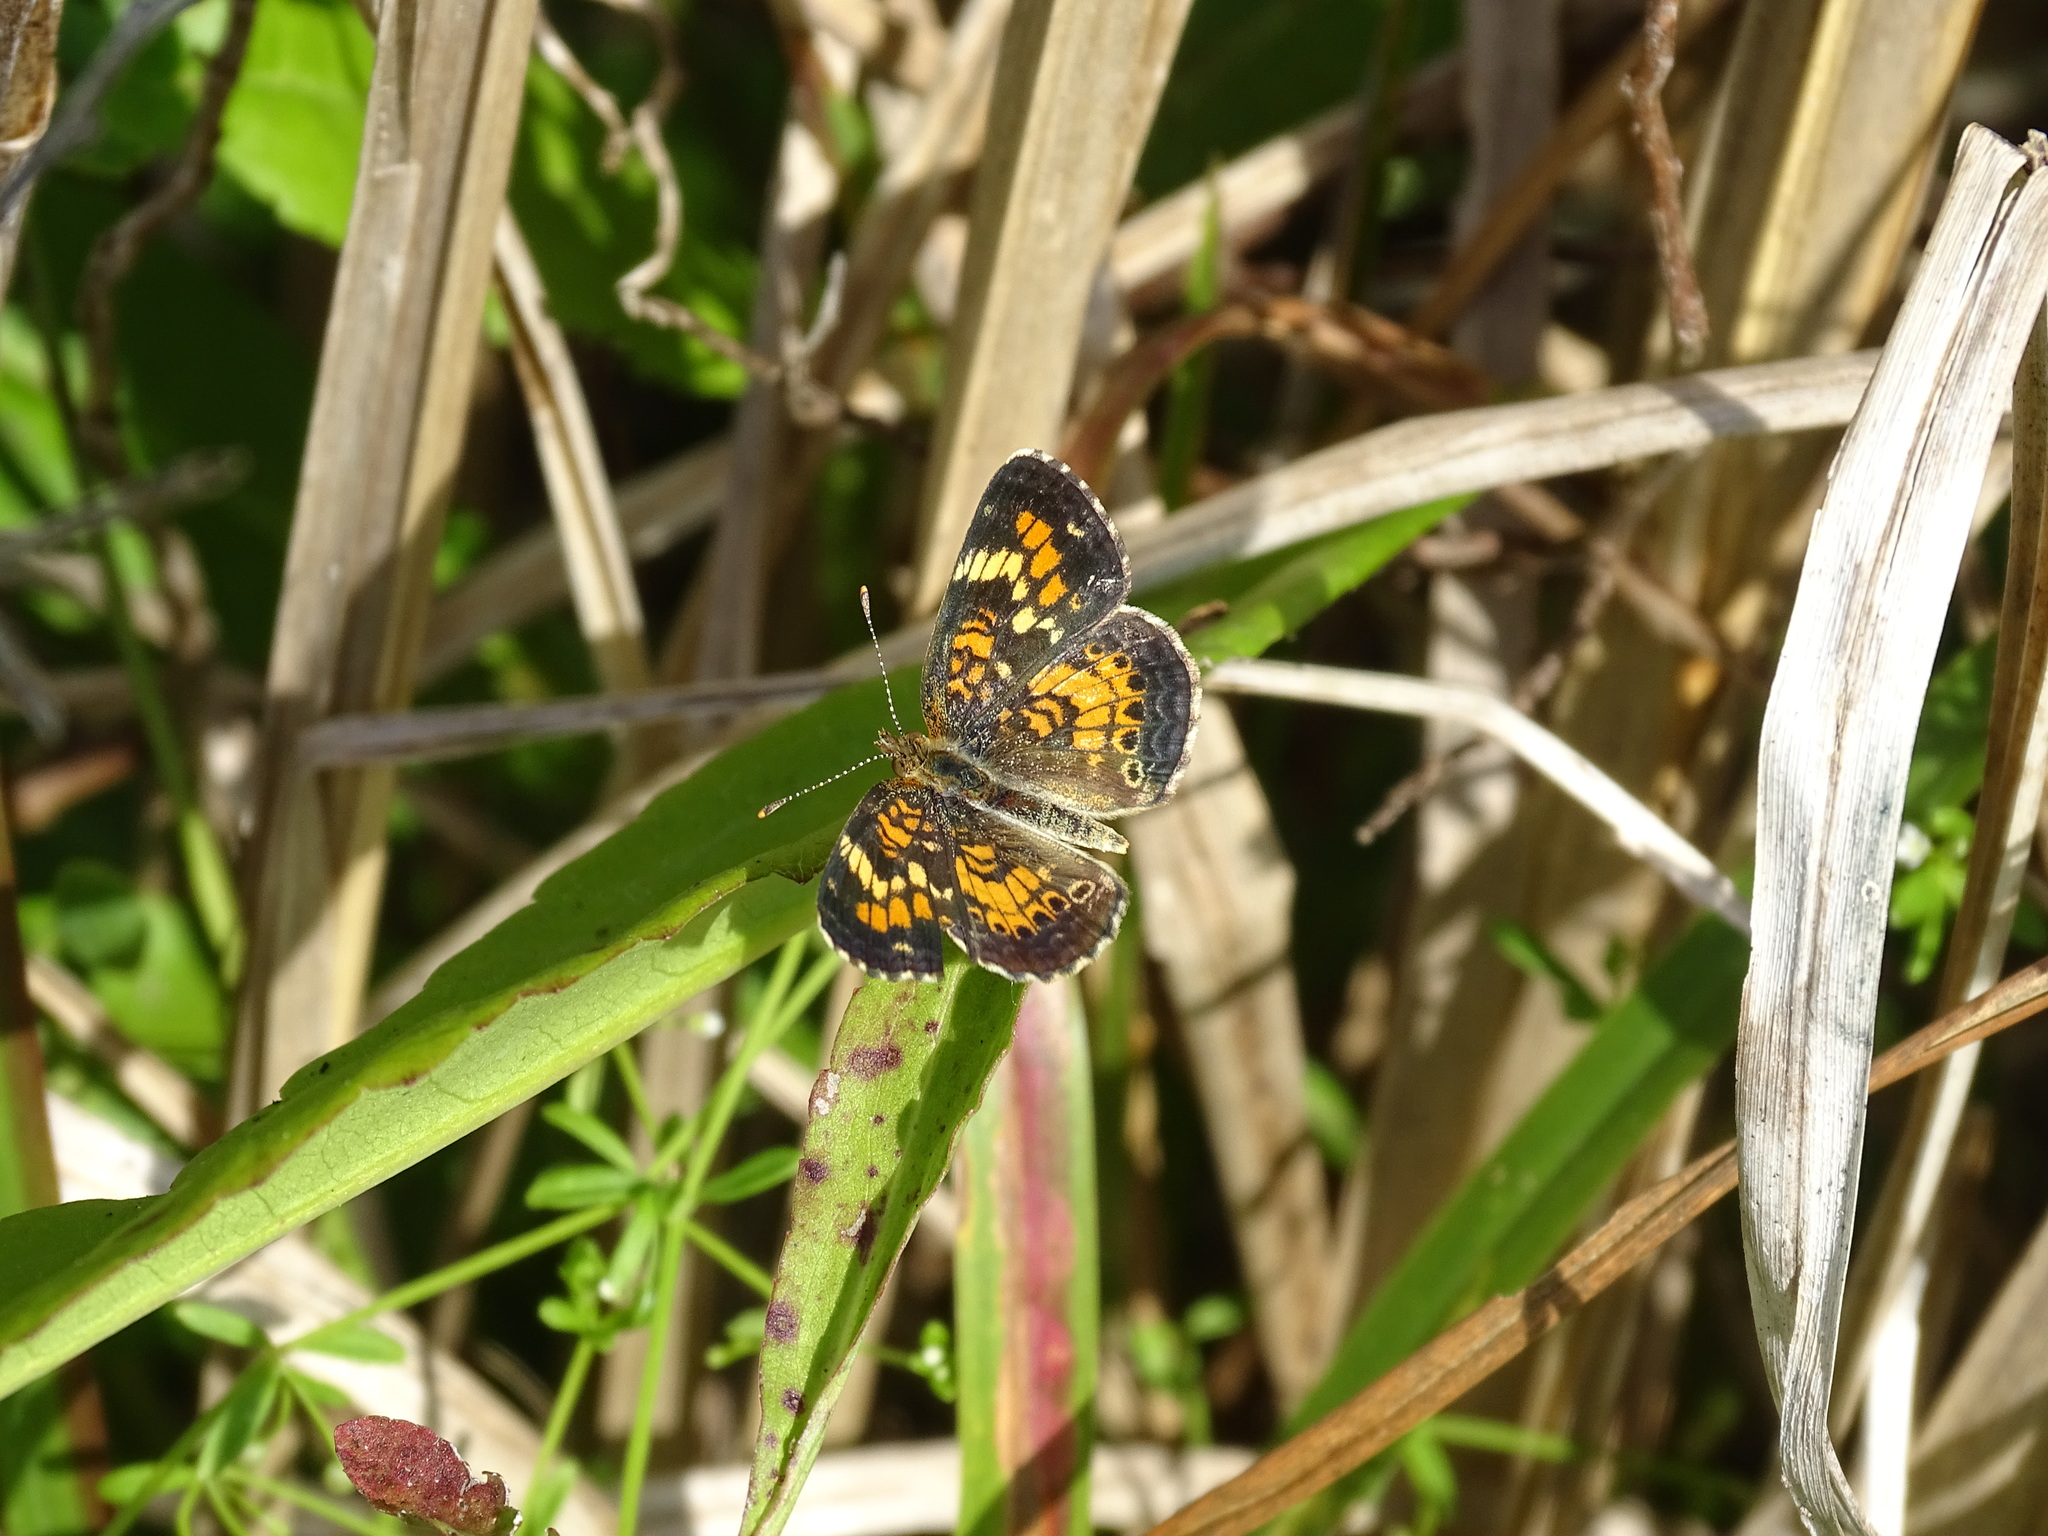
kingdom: Animalia
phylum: Arthropoda
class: Insecta
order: Lepidoptera
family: Nymphalidae
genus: Phyciodes
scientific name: Phyciodes phaon
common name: Phaon crescent
